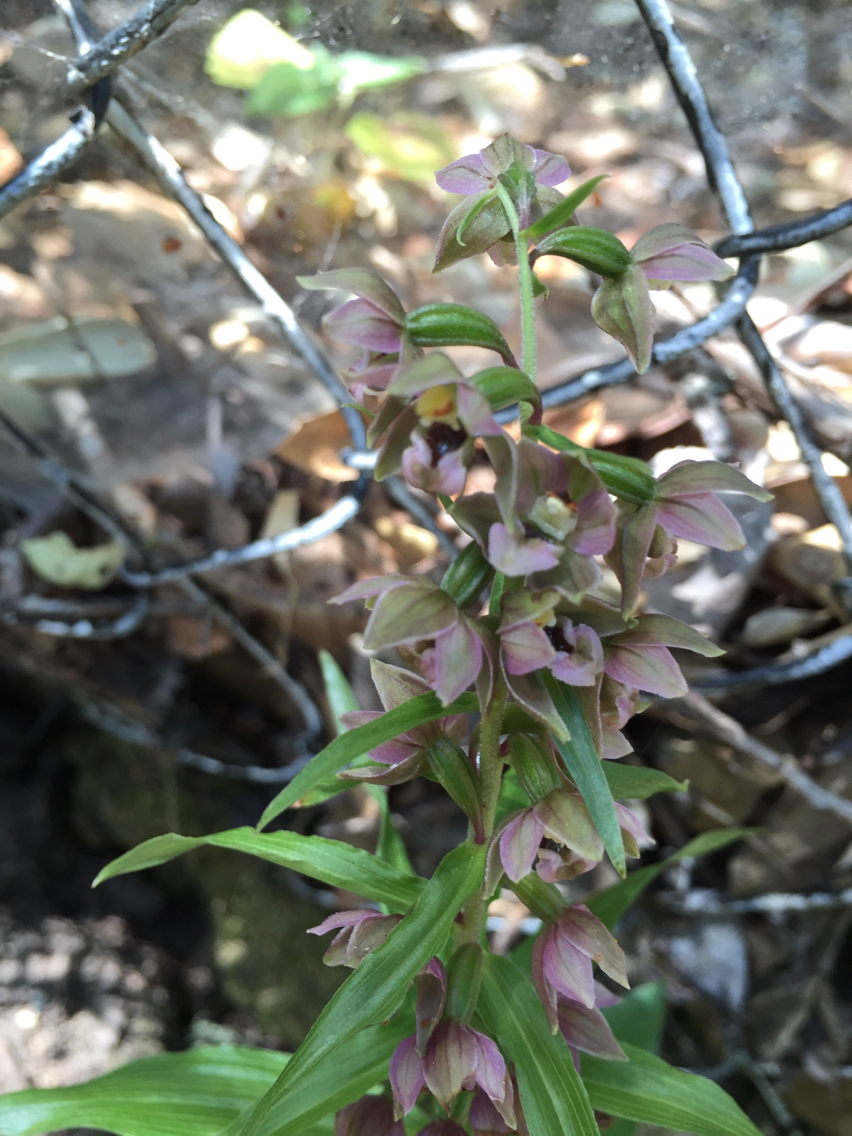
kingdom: Plantae
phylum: Tracheophyta
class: Liliopsida
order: Asparagales
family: Orchidaceae
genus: Epipactis
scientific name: Epipactis helleborine
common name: Broad-leaved helleborine
